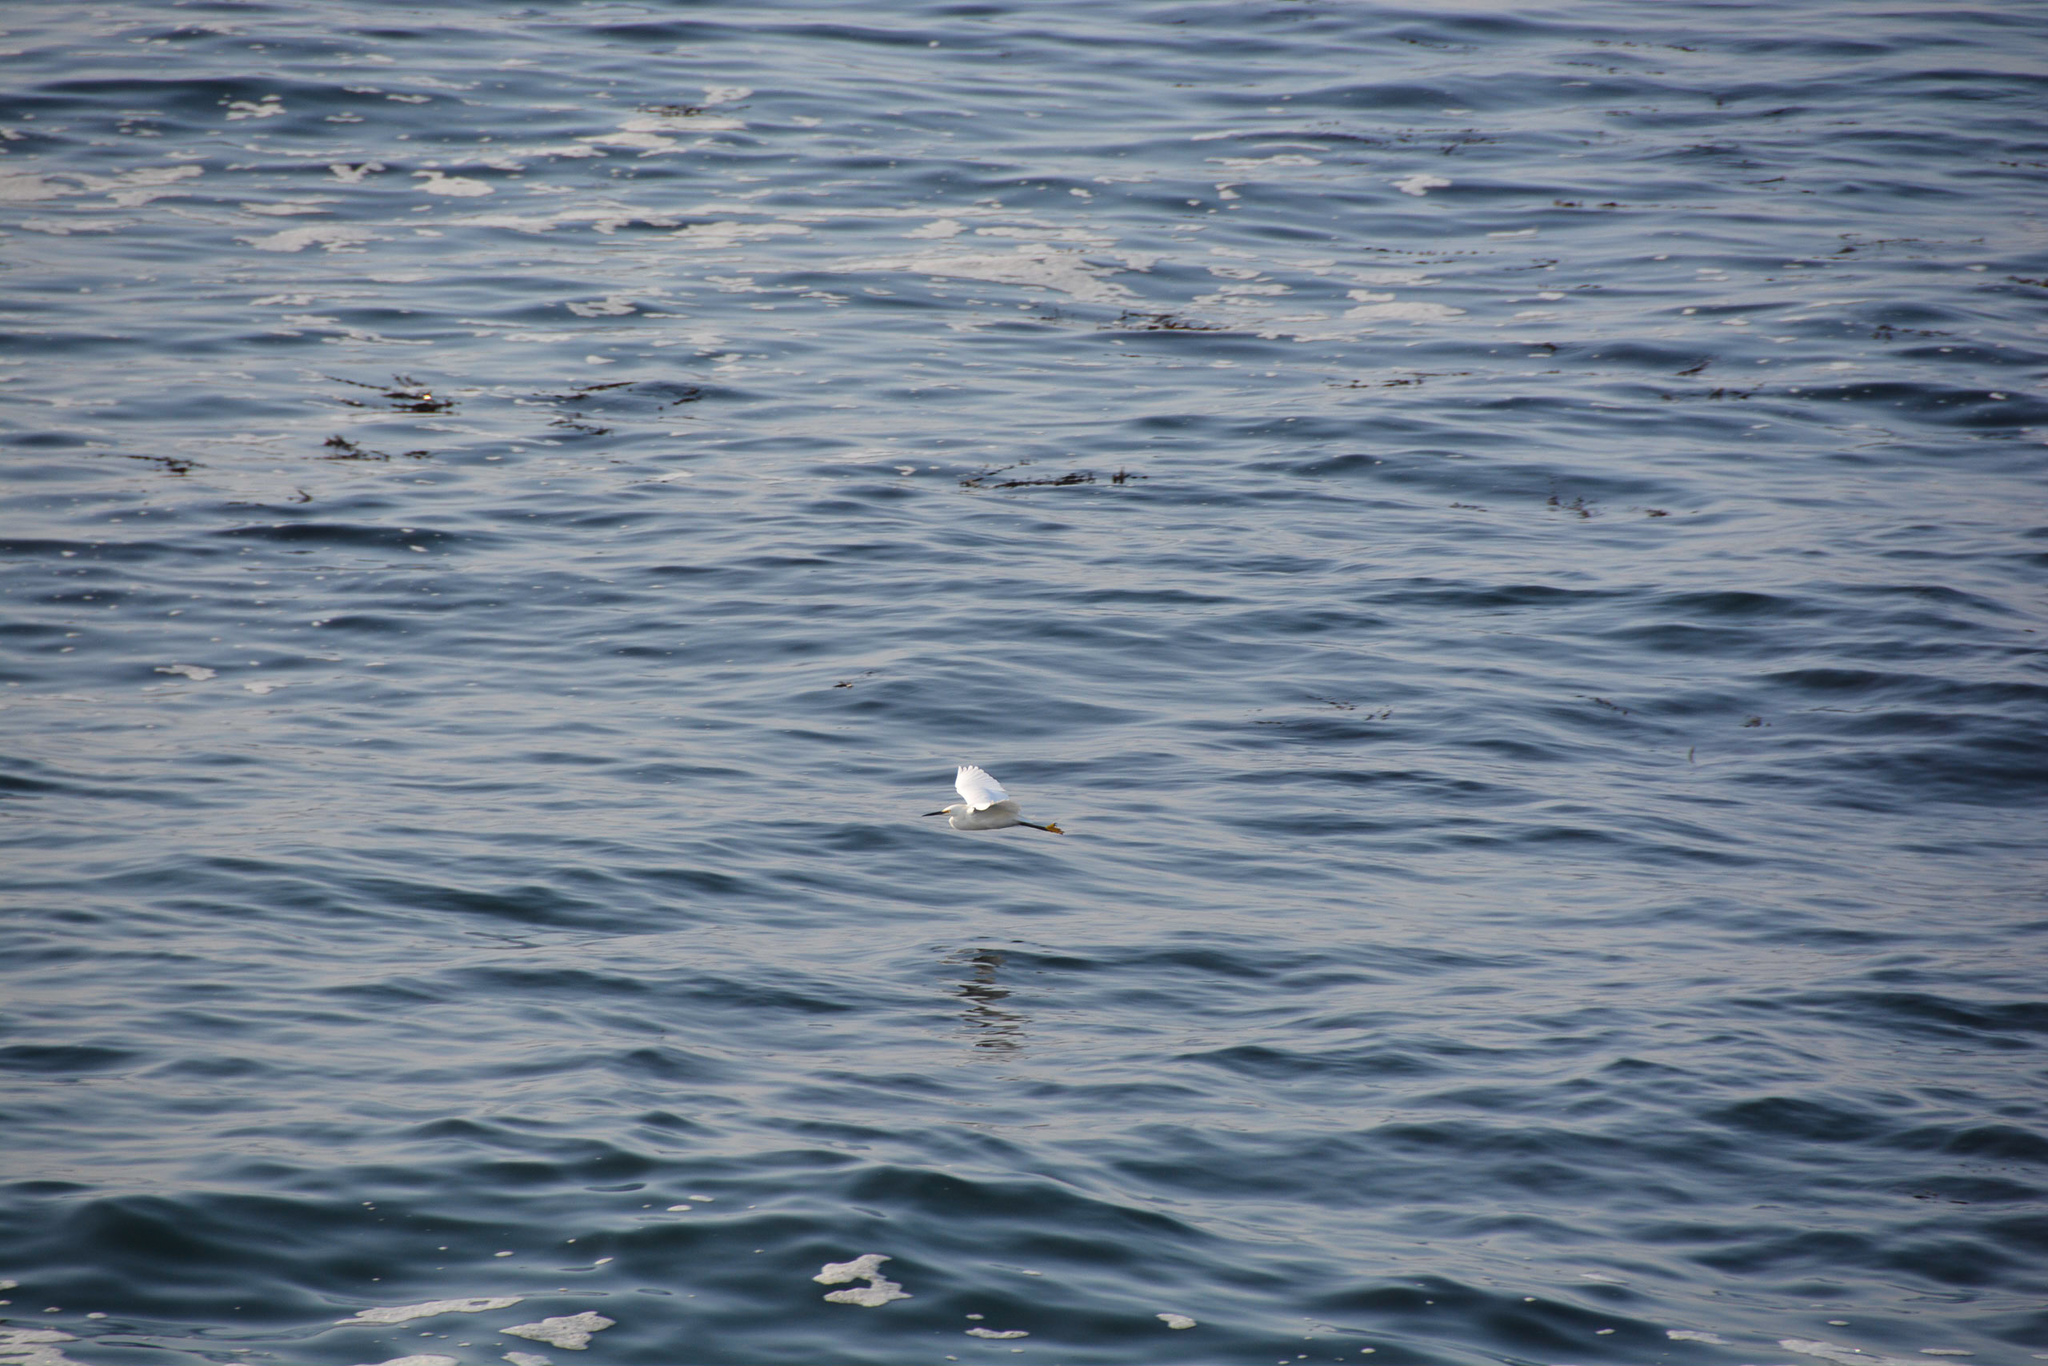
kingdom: Animalia
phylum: Chordata
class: Aves
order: Pelecaniformes
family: Ardeidae
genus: Egretta
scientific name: Egretta thula
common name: Snowy egret
